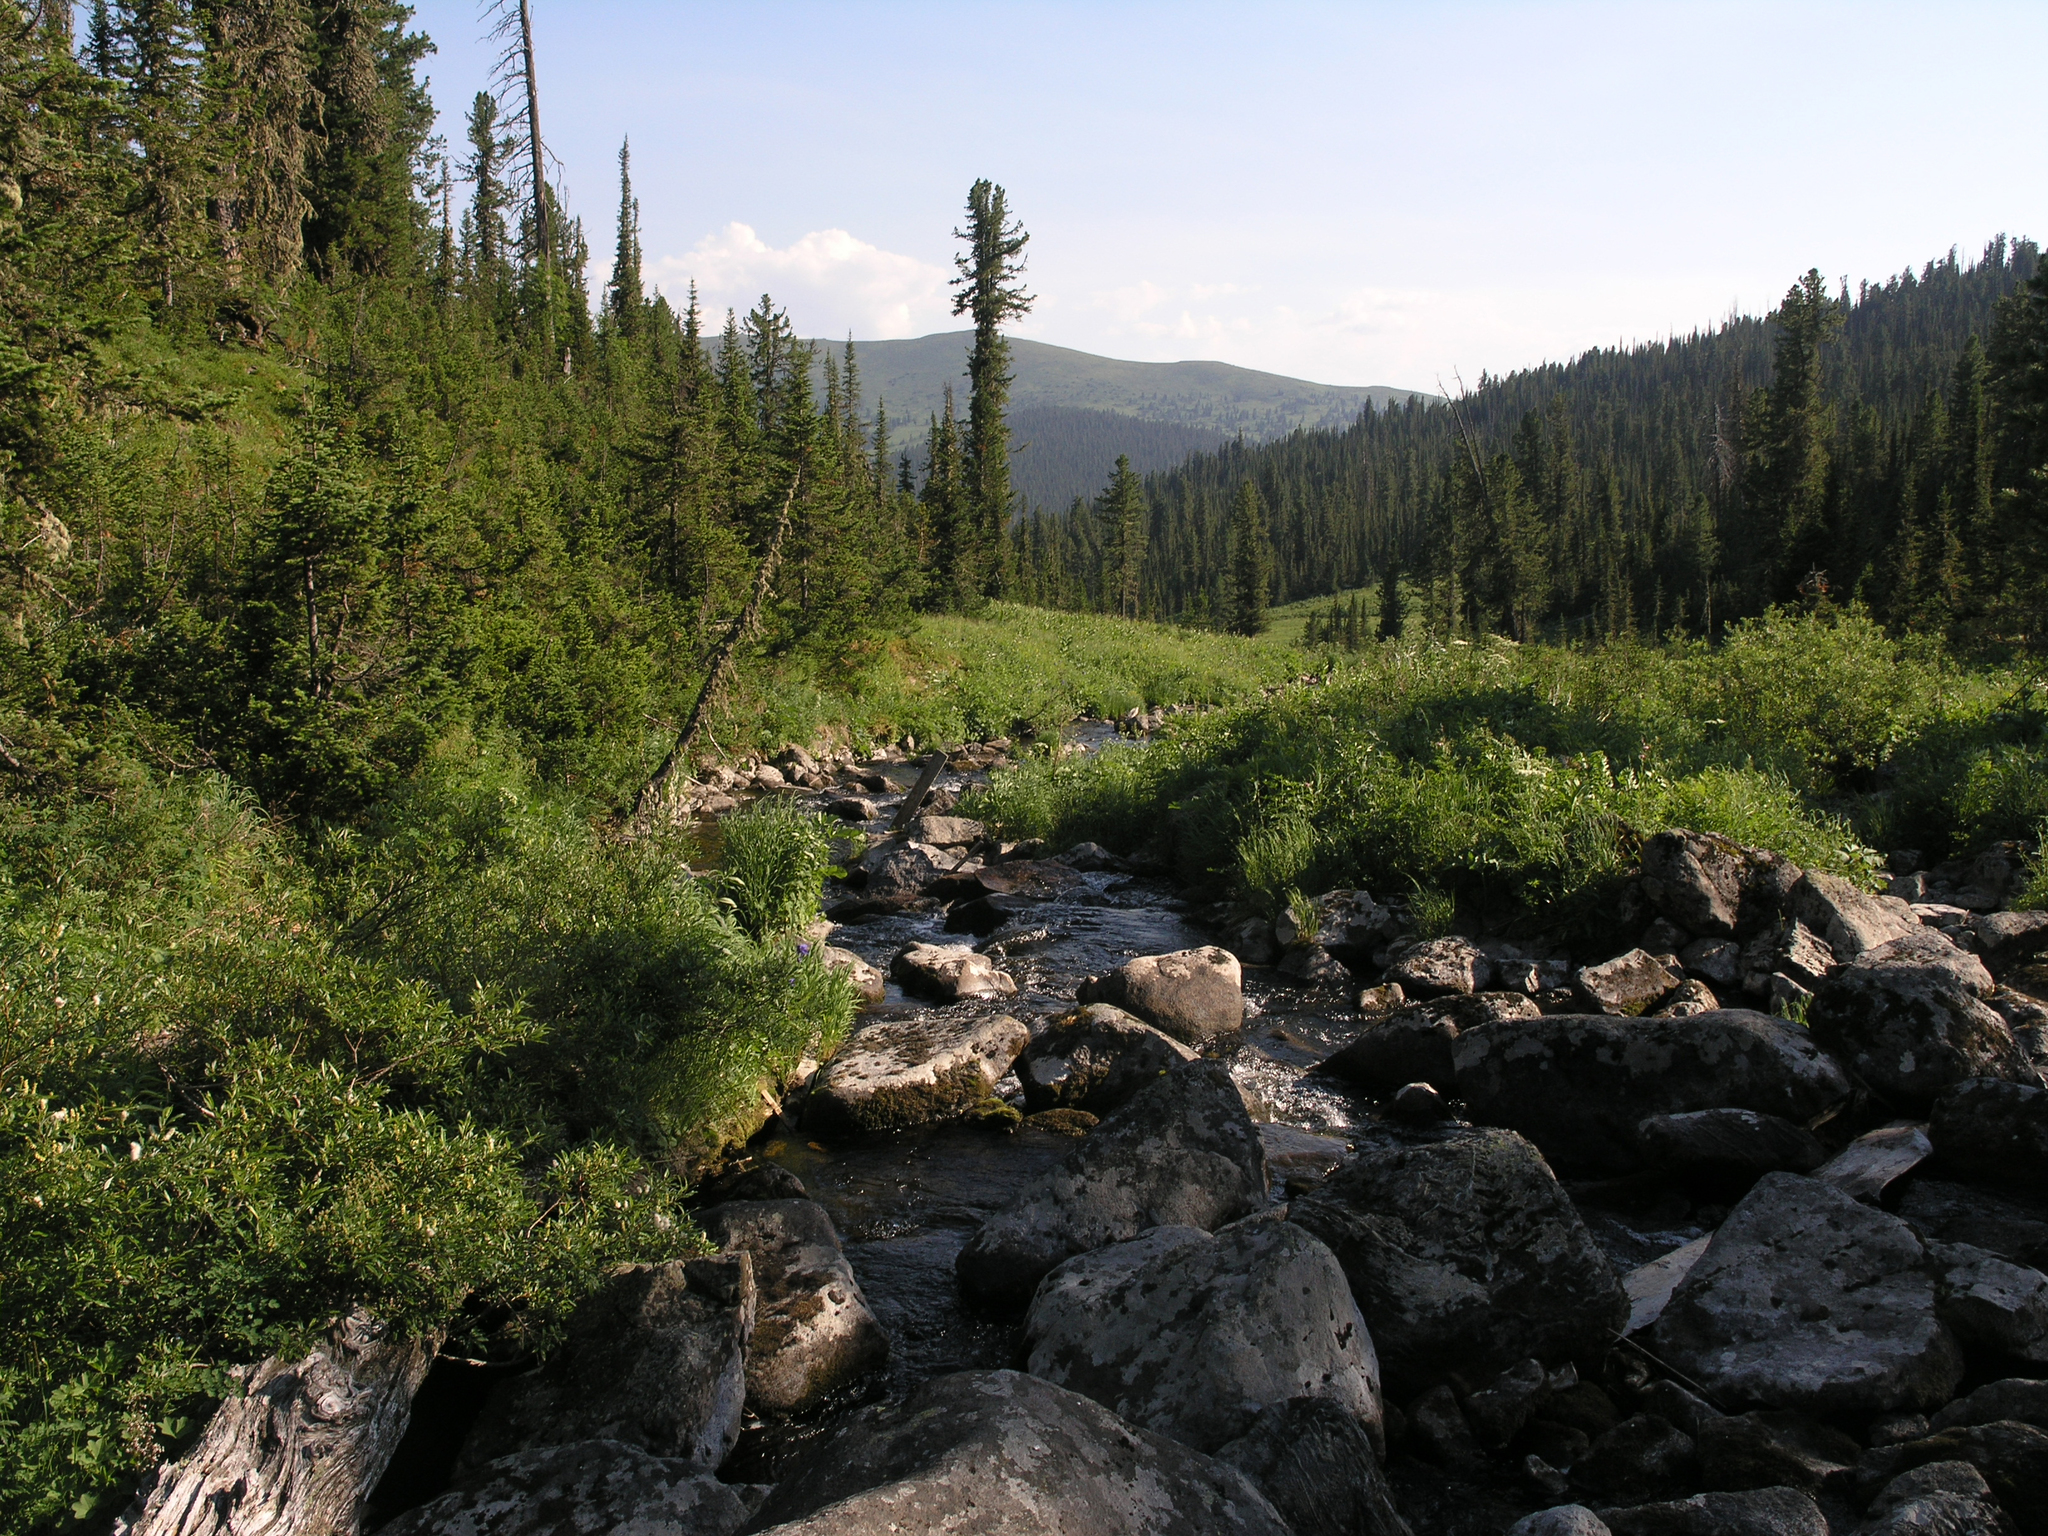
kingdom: Plantae
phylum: Tracheophyta
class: Pinopsida
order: Pinales
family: Pinaceae
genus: Pinus
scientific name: Pinus sibirica
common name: Siberian pine
